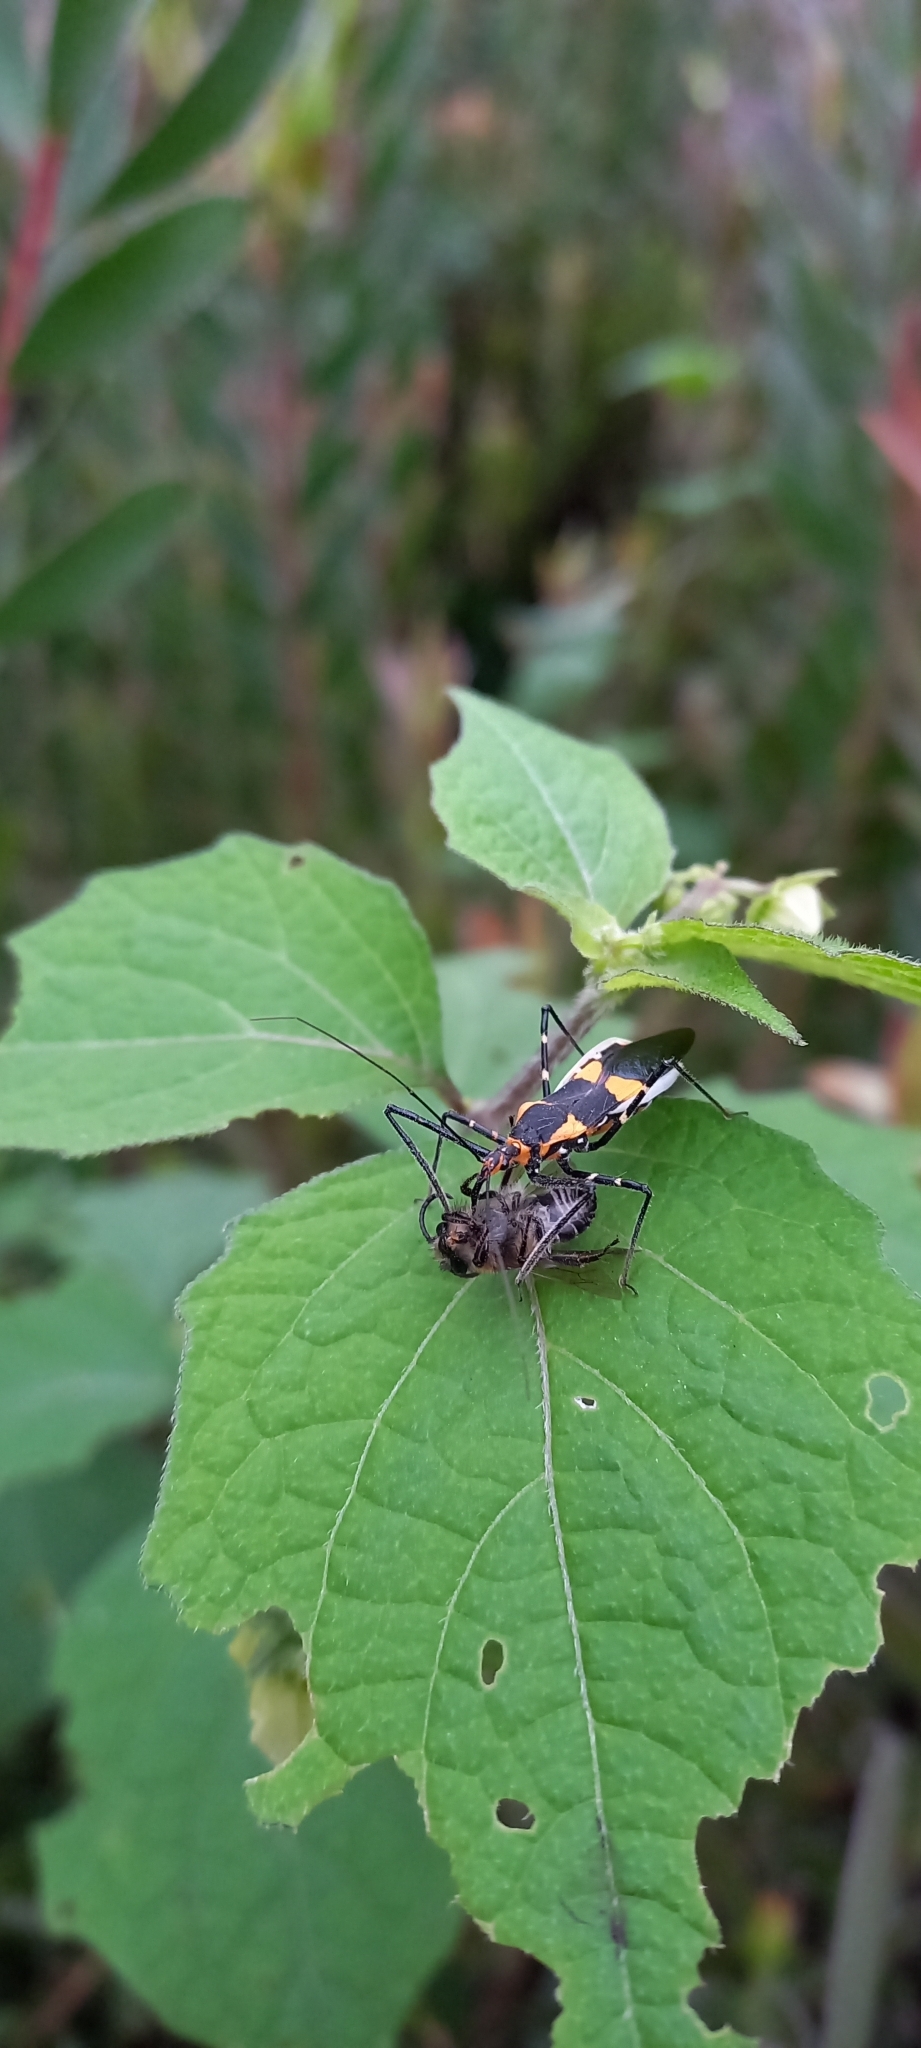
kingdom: Animalia
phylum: Arthropoda
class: Insecta
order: Hemiptera
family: Reduviidae
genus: Zelus
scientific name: Zelus longipes
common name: Milkweed assassin bug
